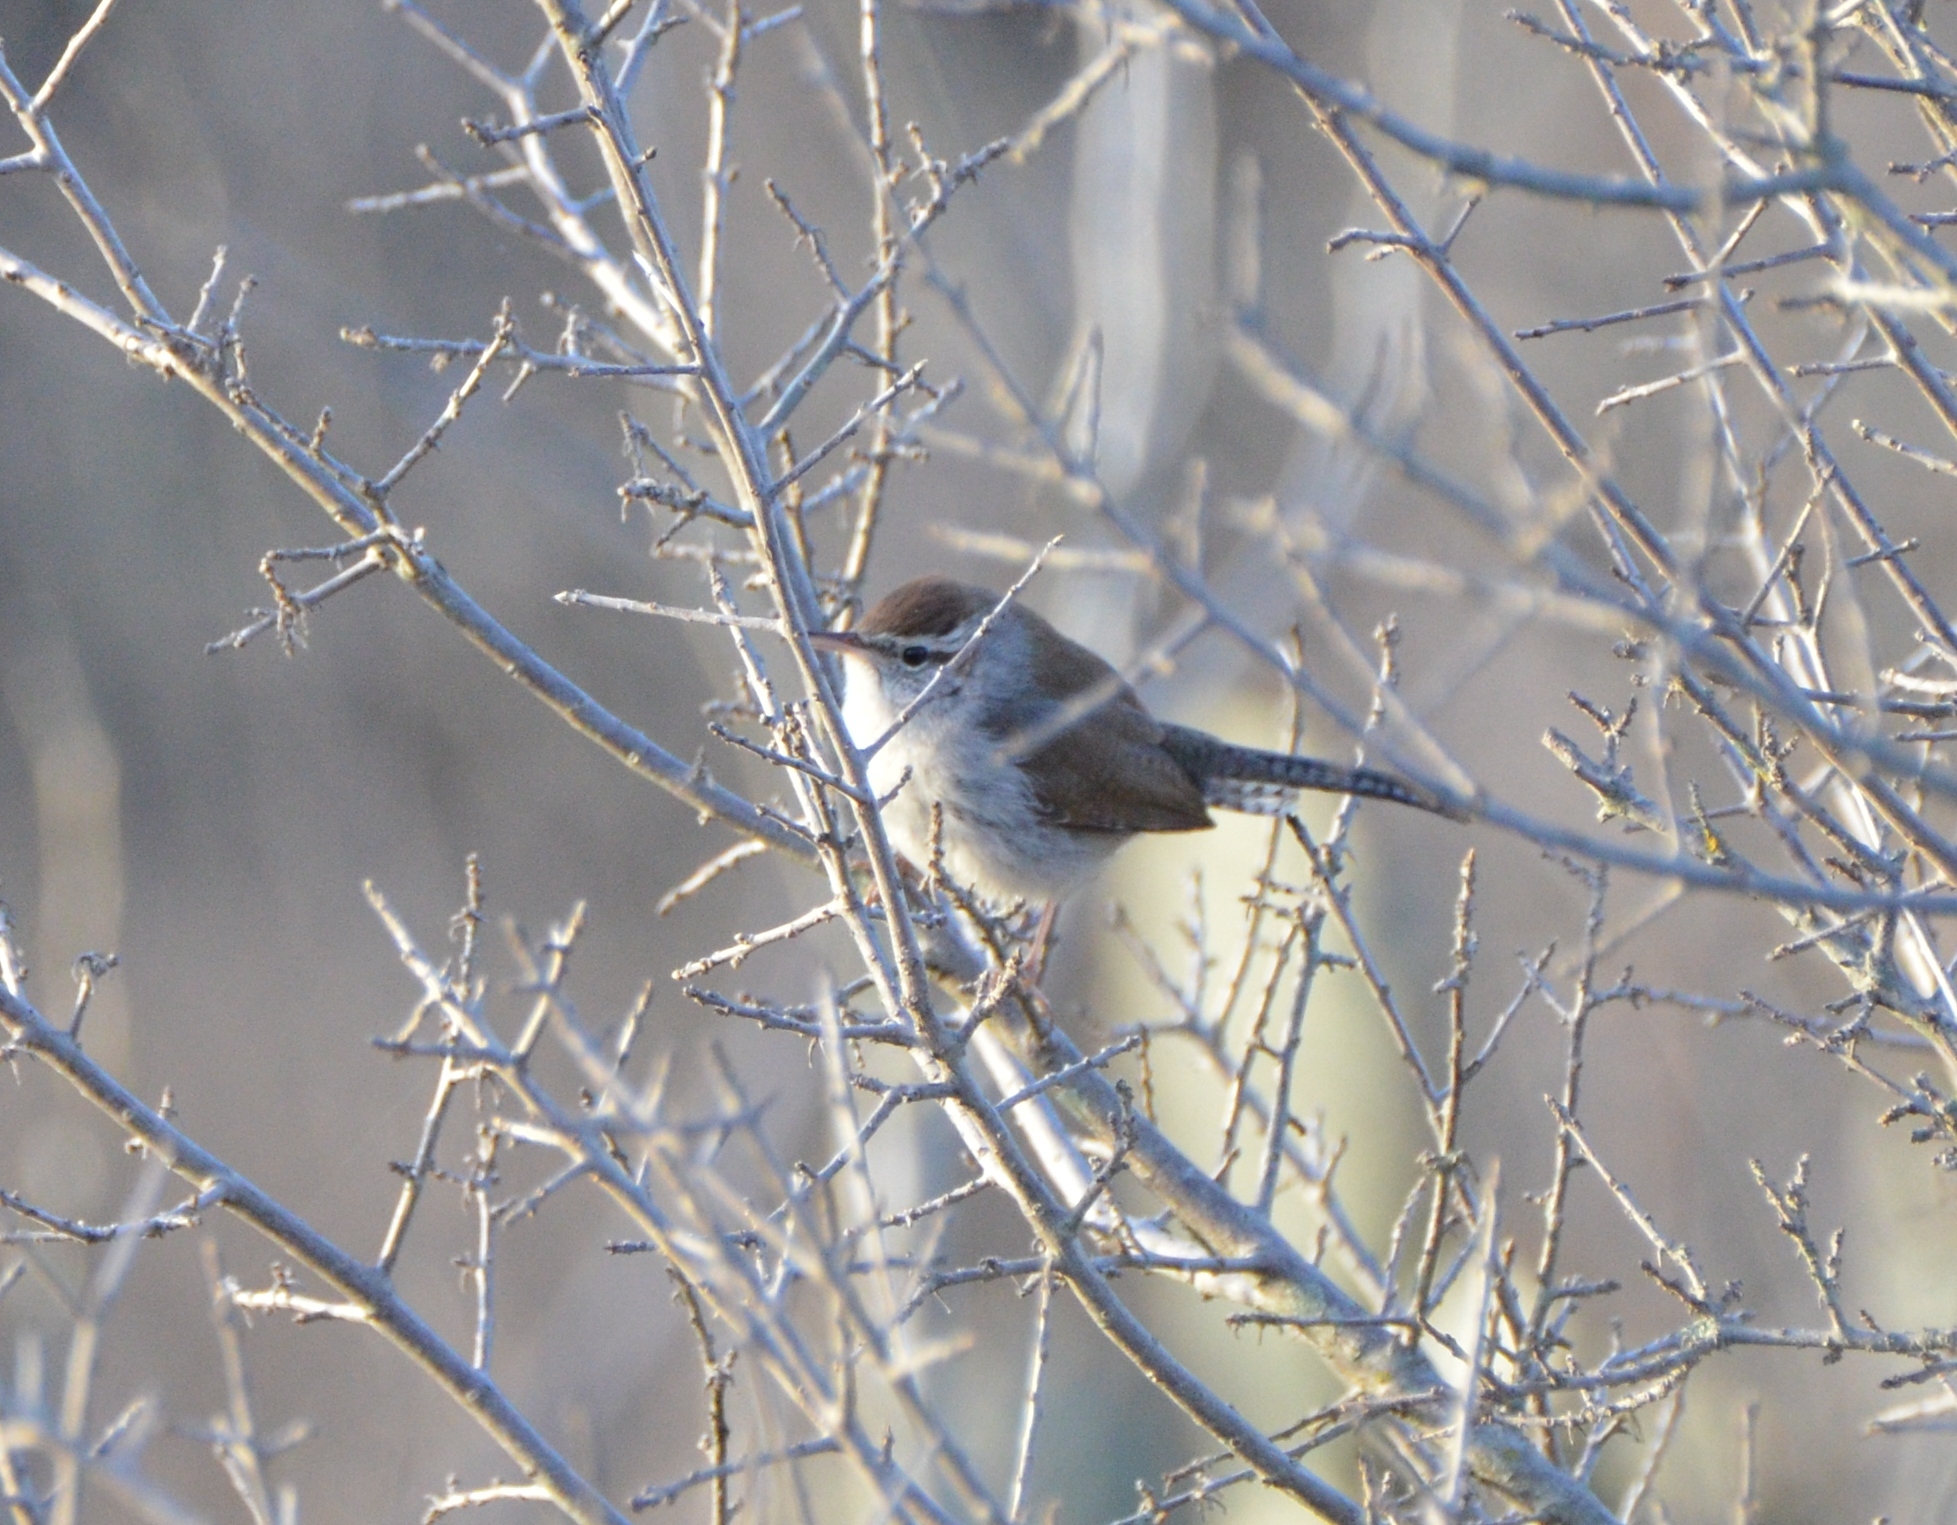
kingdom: Animalia
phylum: Chordata
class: Aves
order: Passeriformes
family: Troglodytidae
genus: Thryomanes
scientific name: Thryomanes bewickii
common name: Bewick's wren
